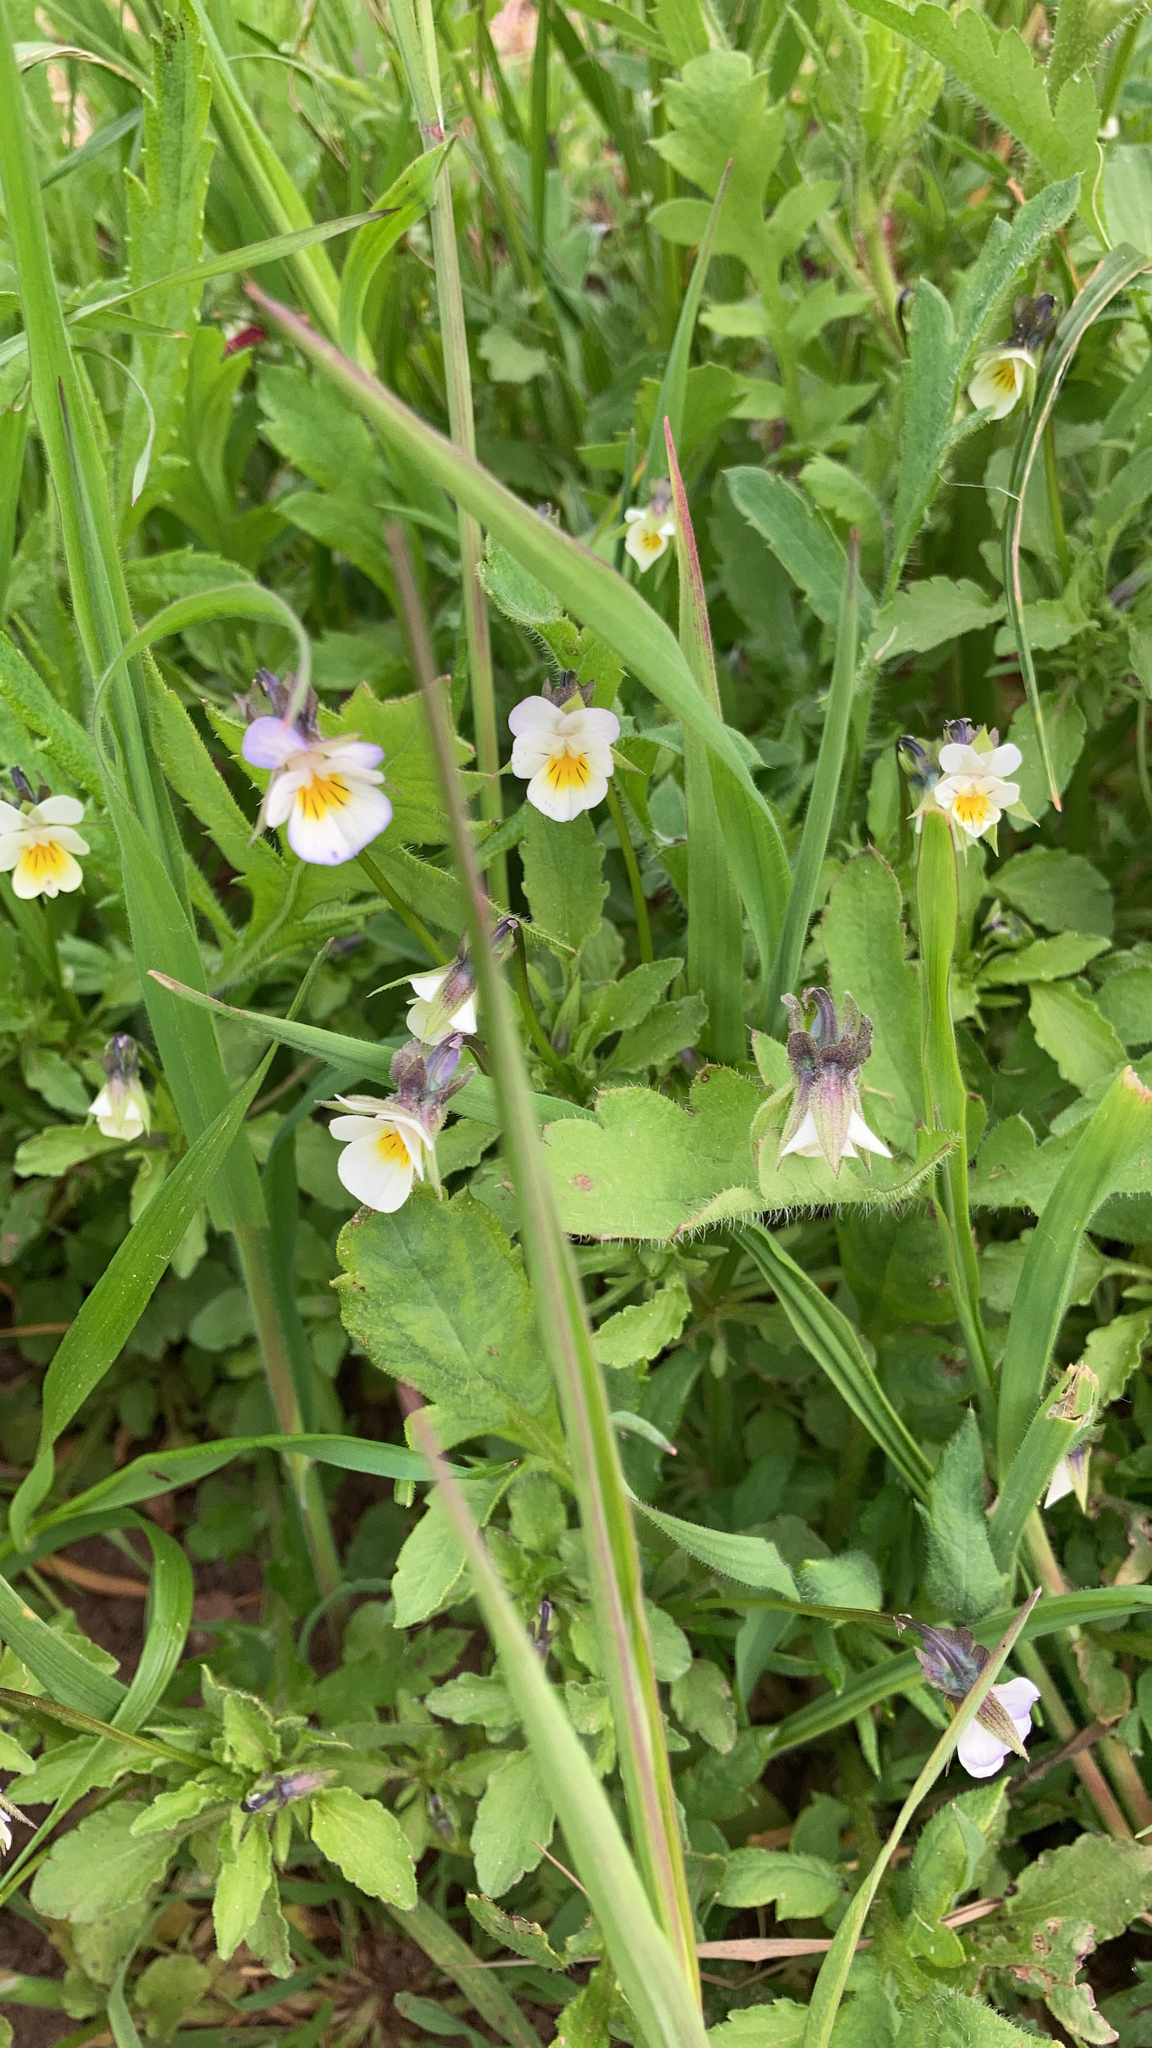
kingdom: Plantae
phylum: Tracheophyta
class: Magnoliopsida
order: Malpighiales
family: Violaceae
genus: Viola
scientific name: Viola arvensis
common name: Field pansy
